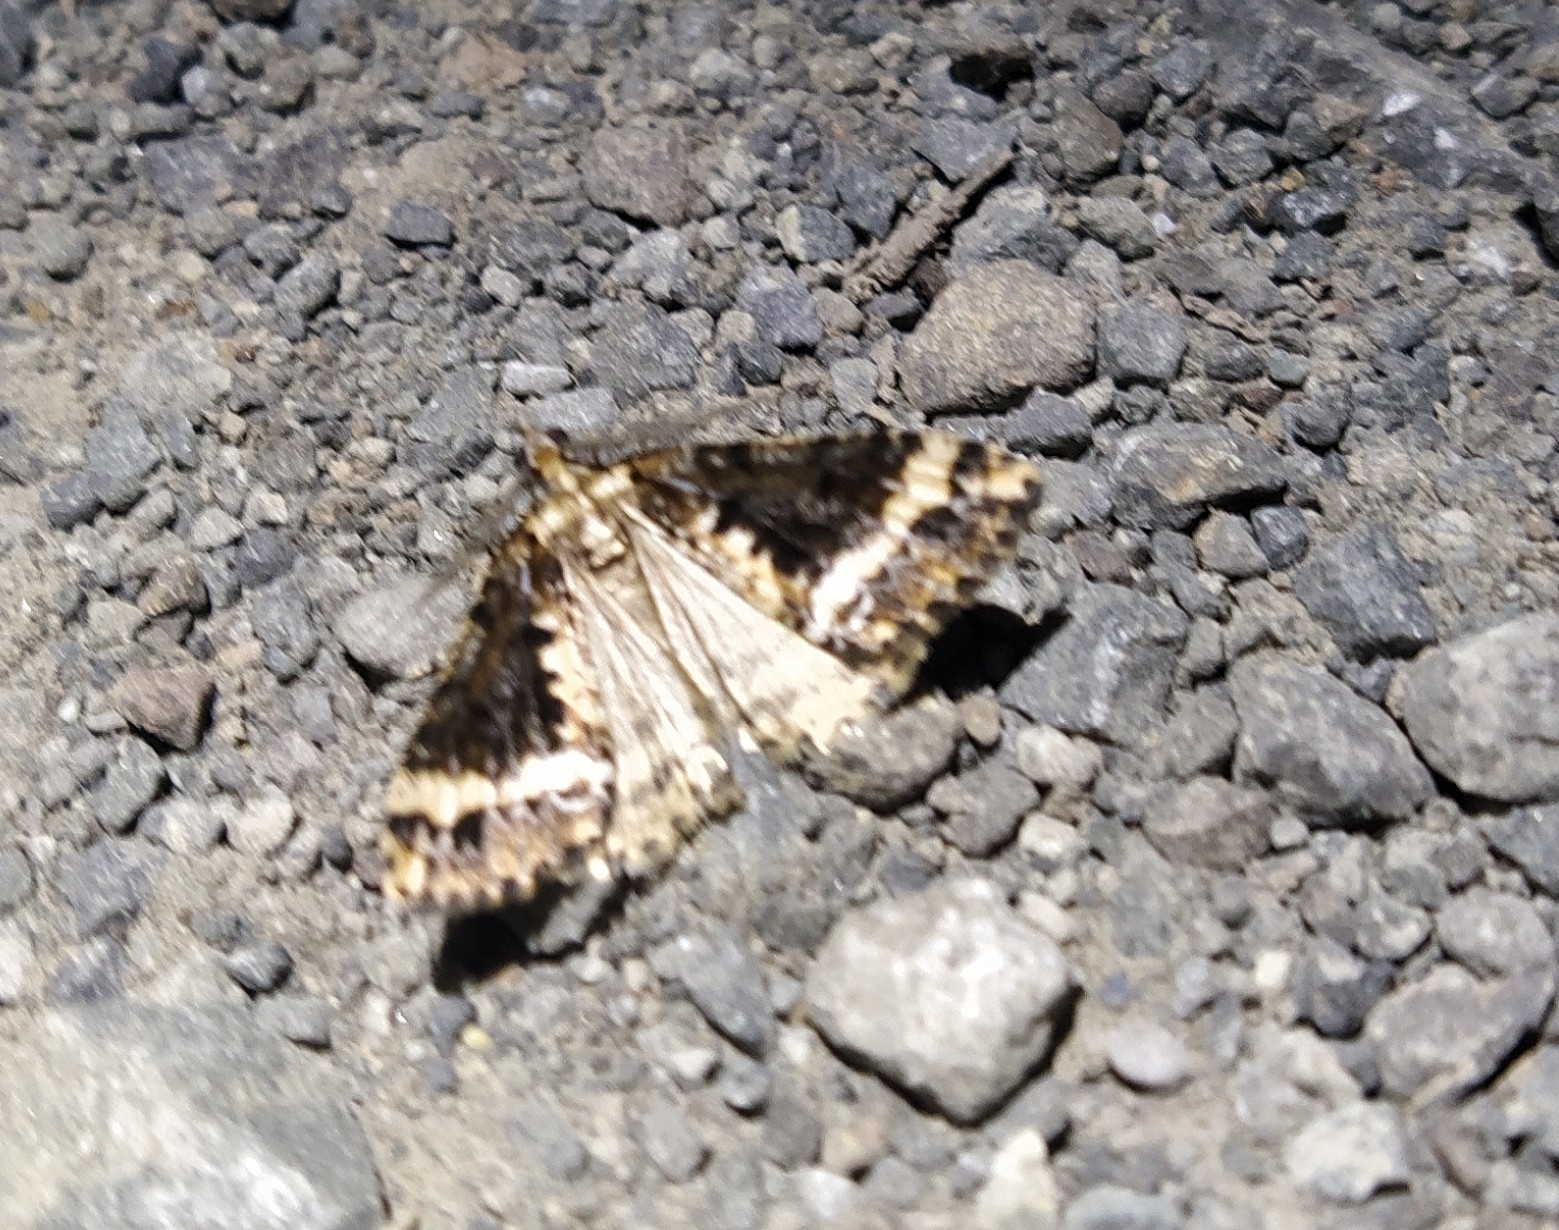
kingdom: Animalia
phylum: Arthropoda
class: Insecta
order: Lepidoptera
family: Geometridae
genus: Pseudocoremia
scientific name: Pseudocoremia leucelaea
